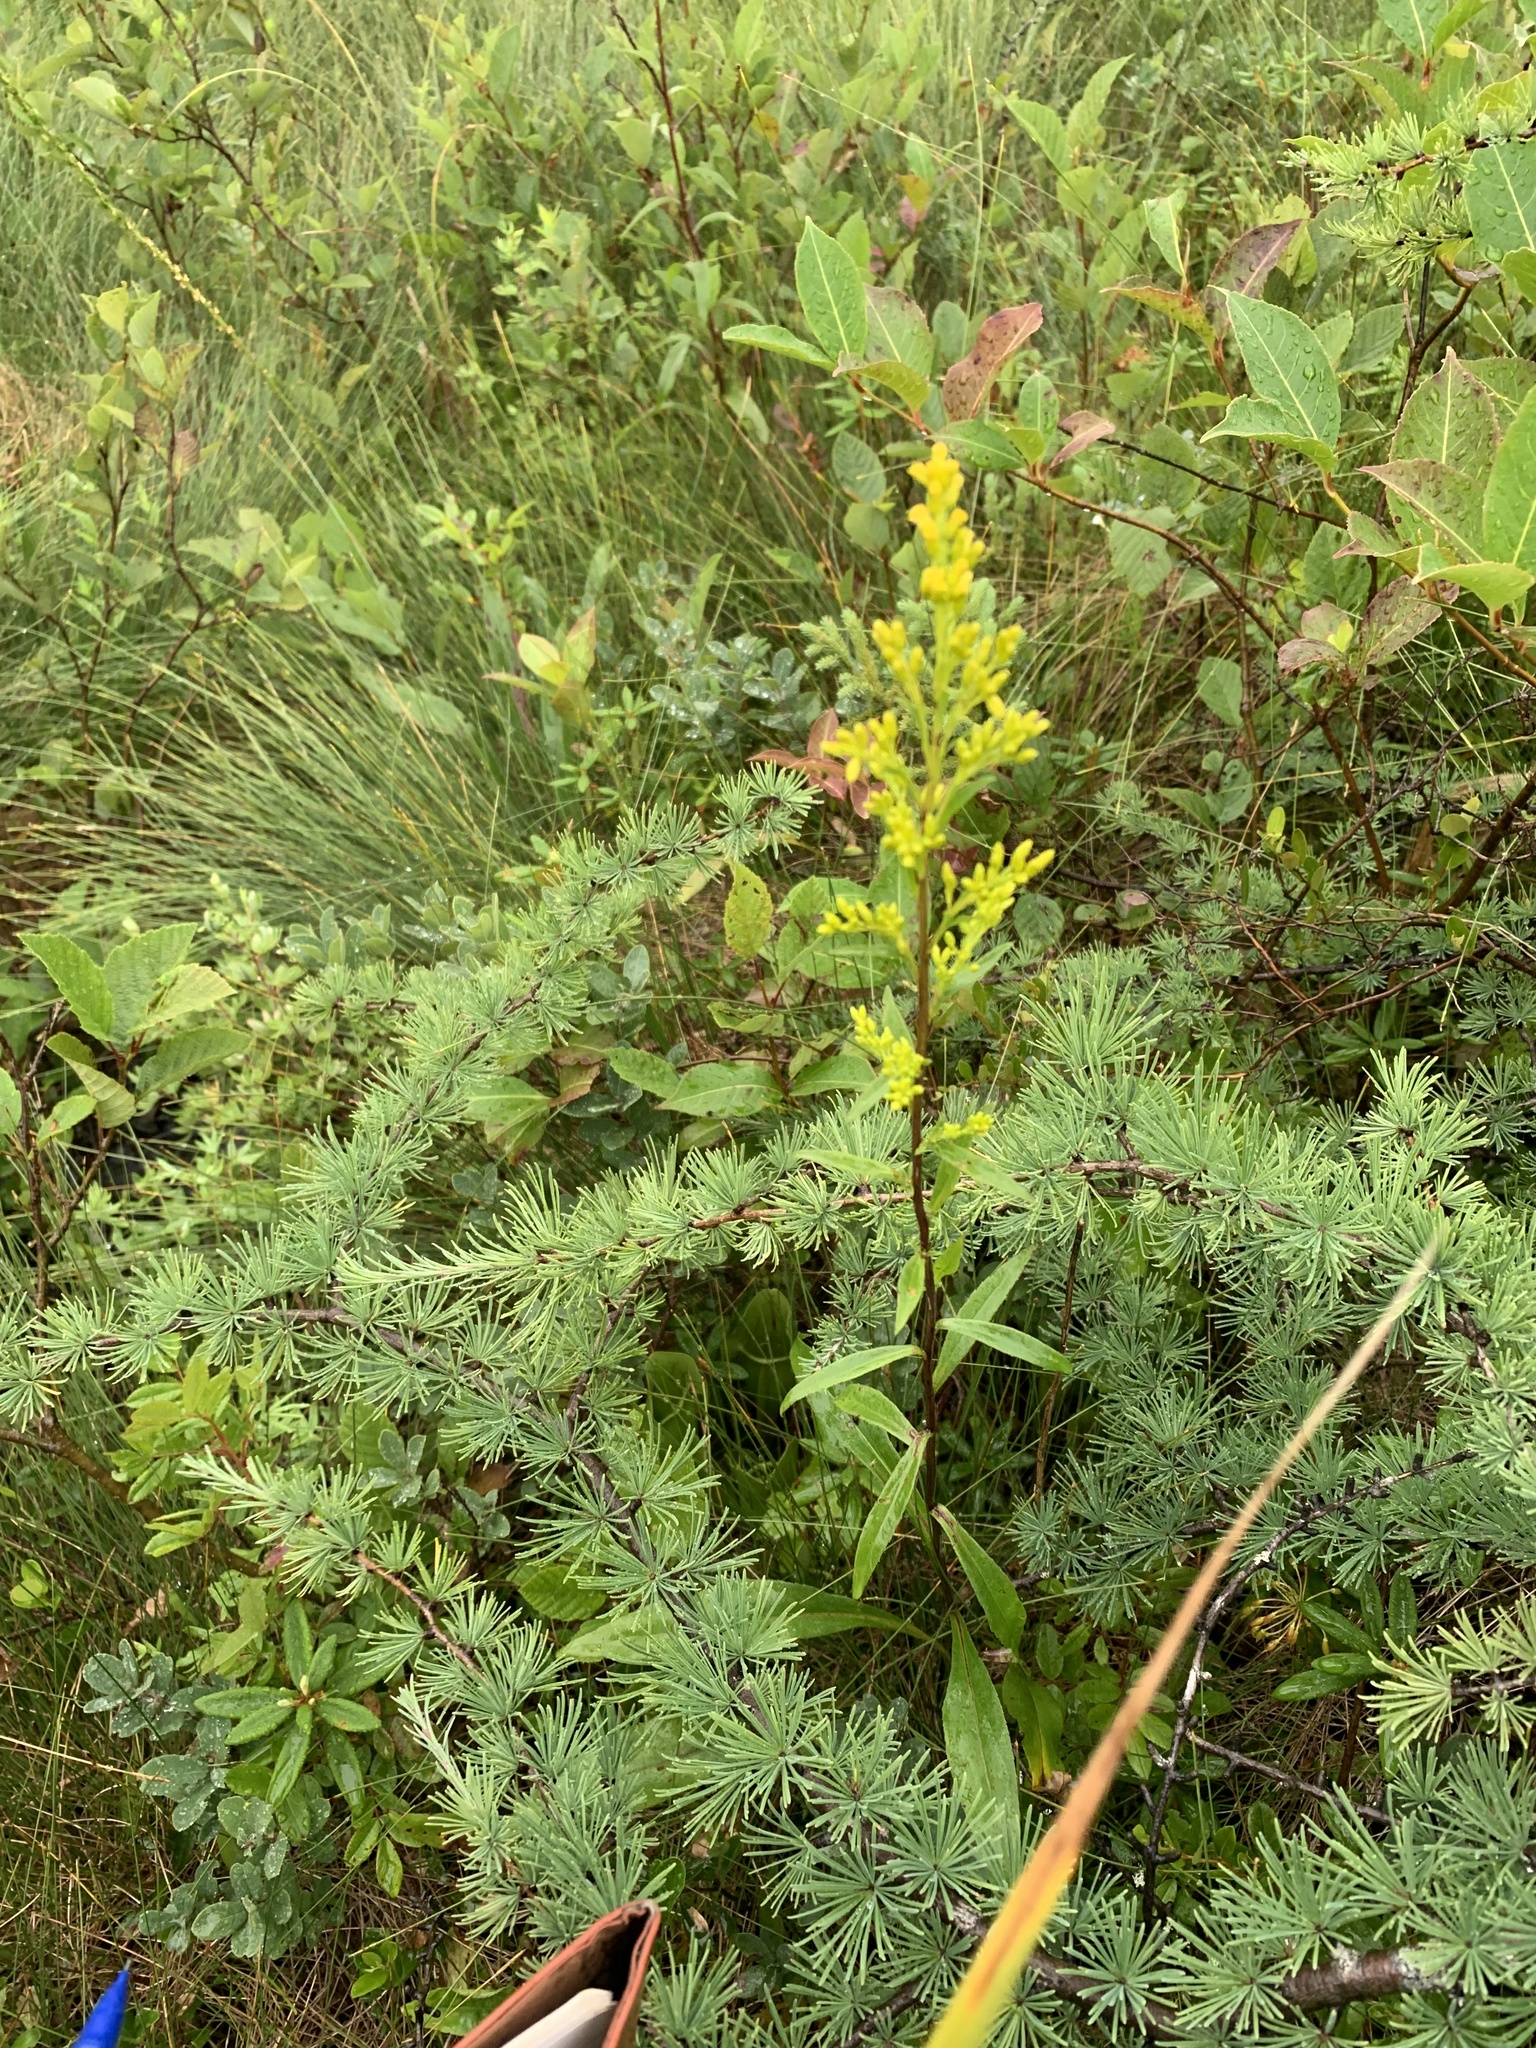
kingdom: Plantae
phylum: Tracheophyta
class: Magnoliopsida
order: Asterales
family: Asteraceae
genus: Solidago
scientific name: Solidago uliginosa
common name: Bog goldenrod
